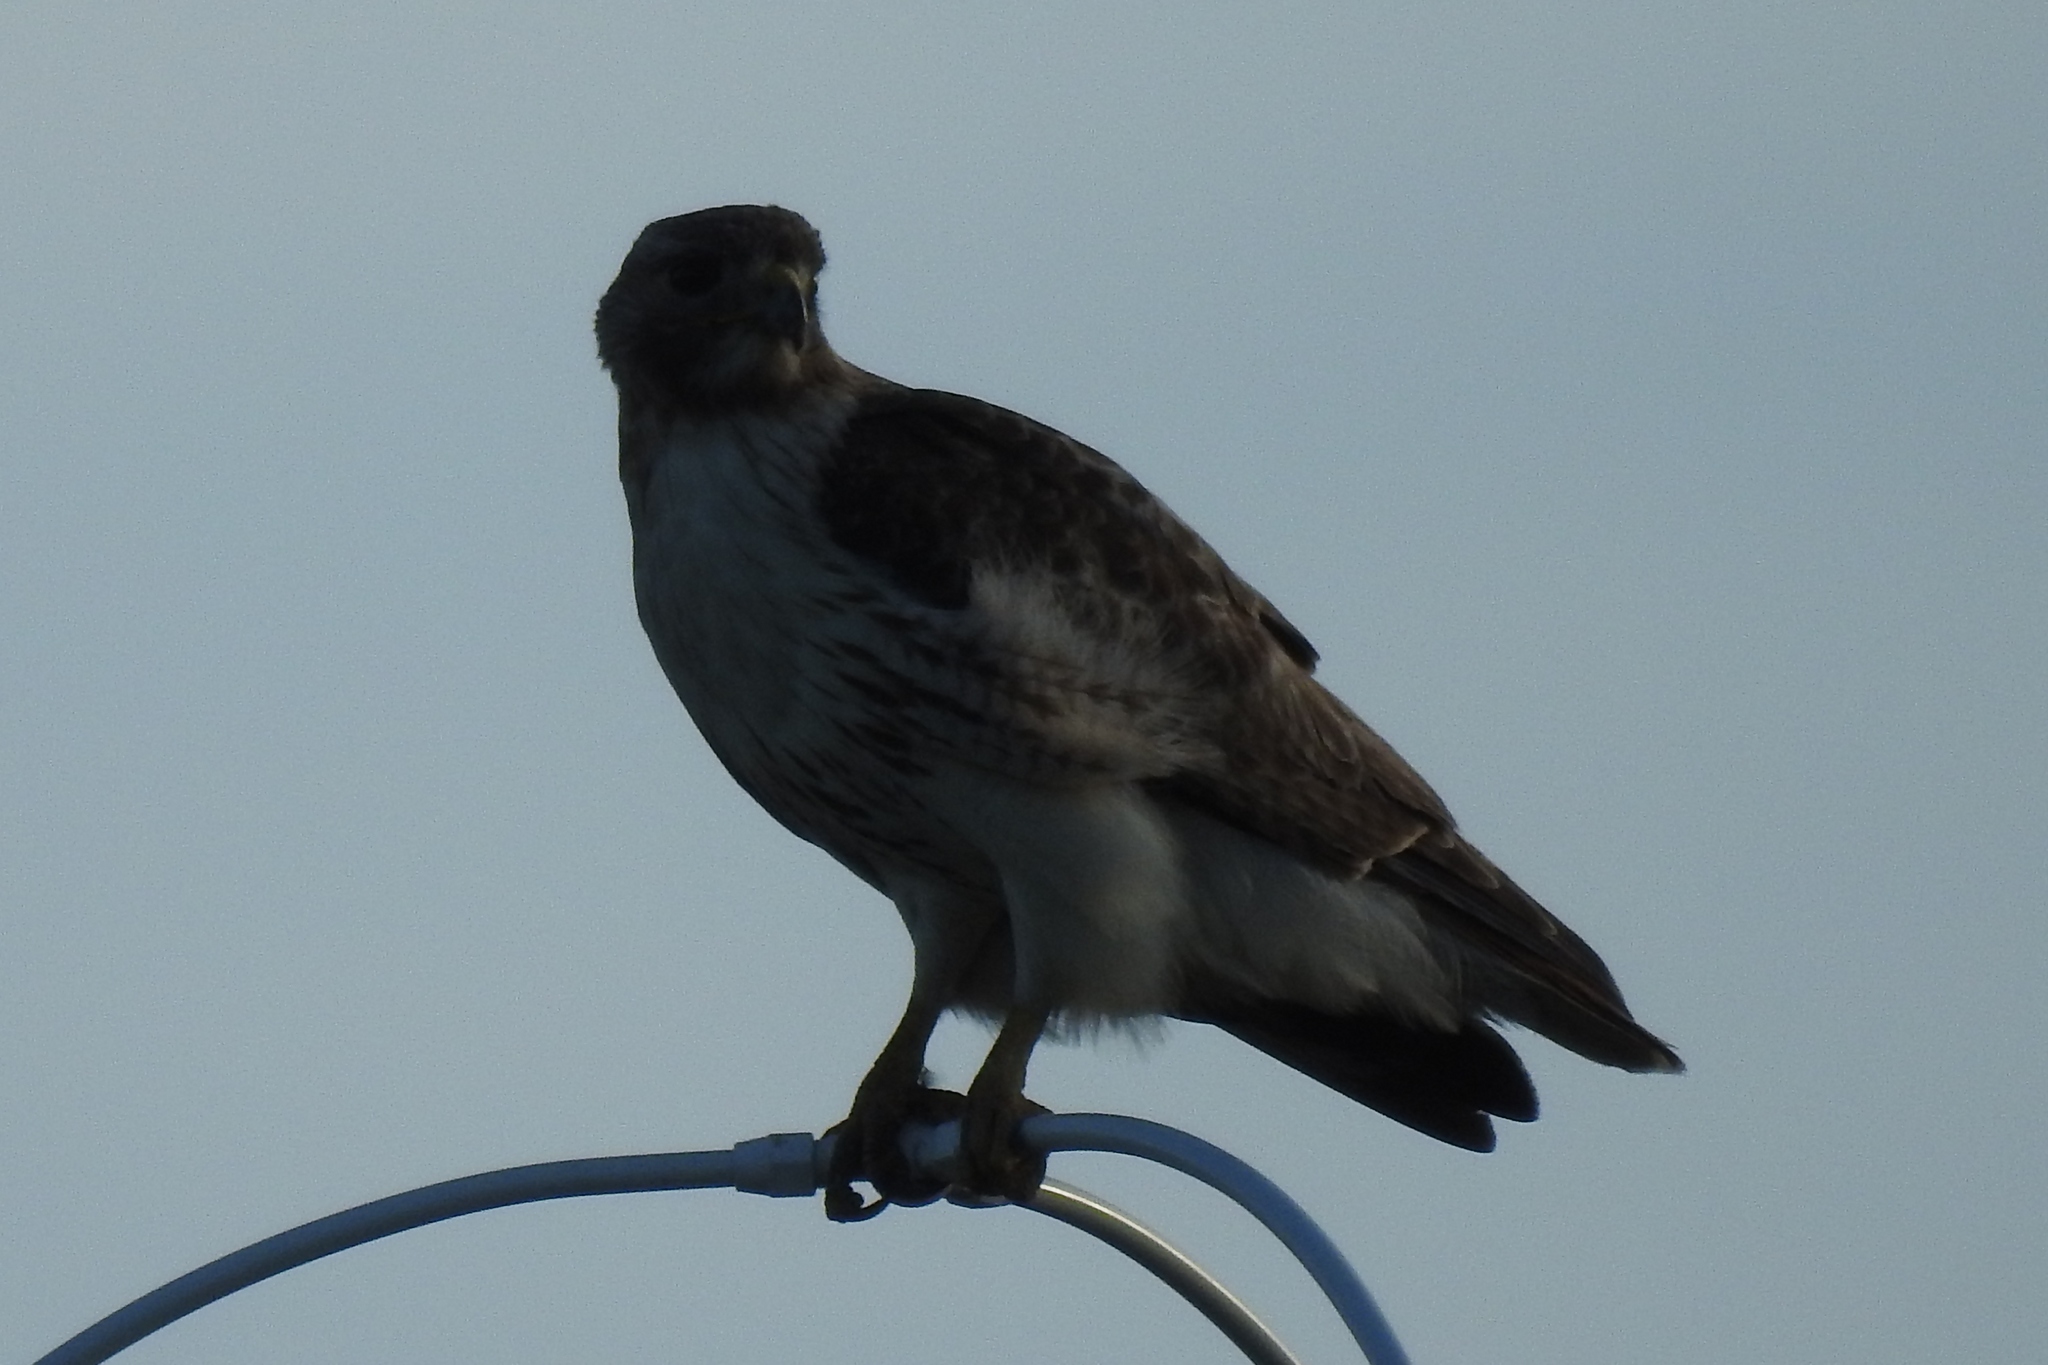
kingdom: Animalia
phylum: Chordata
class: Aves
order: Accipitriformes
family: Accipitridae
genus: Buteo
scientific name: Buteo jamaicensis
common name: Red-tailed hawk
